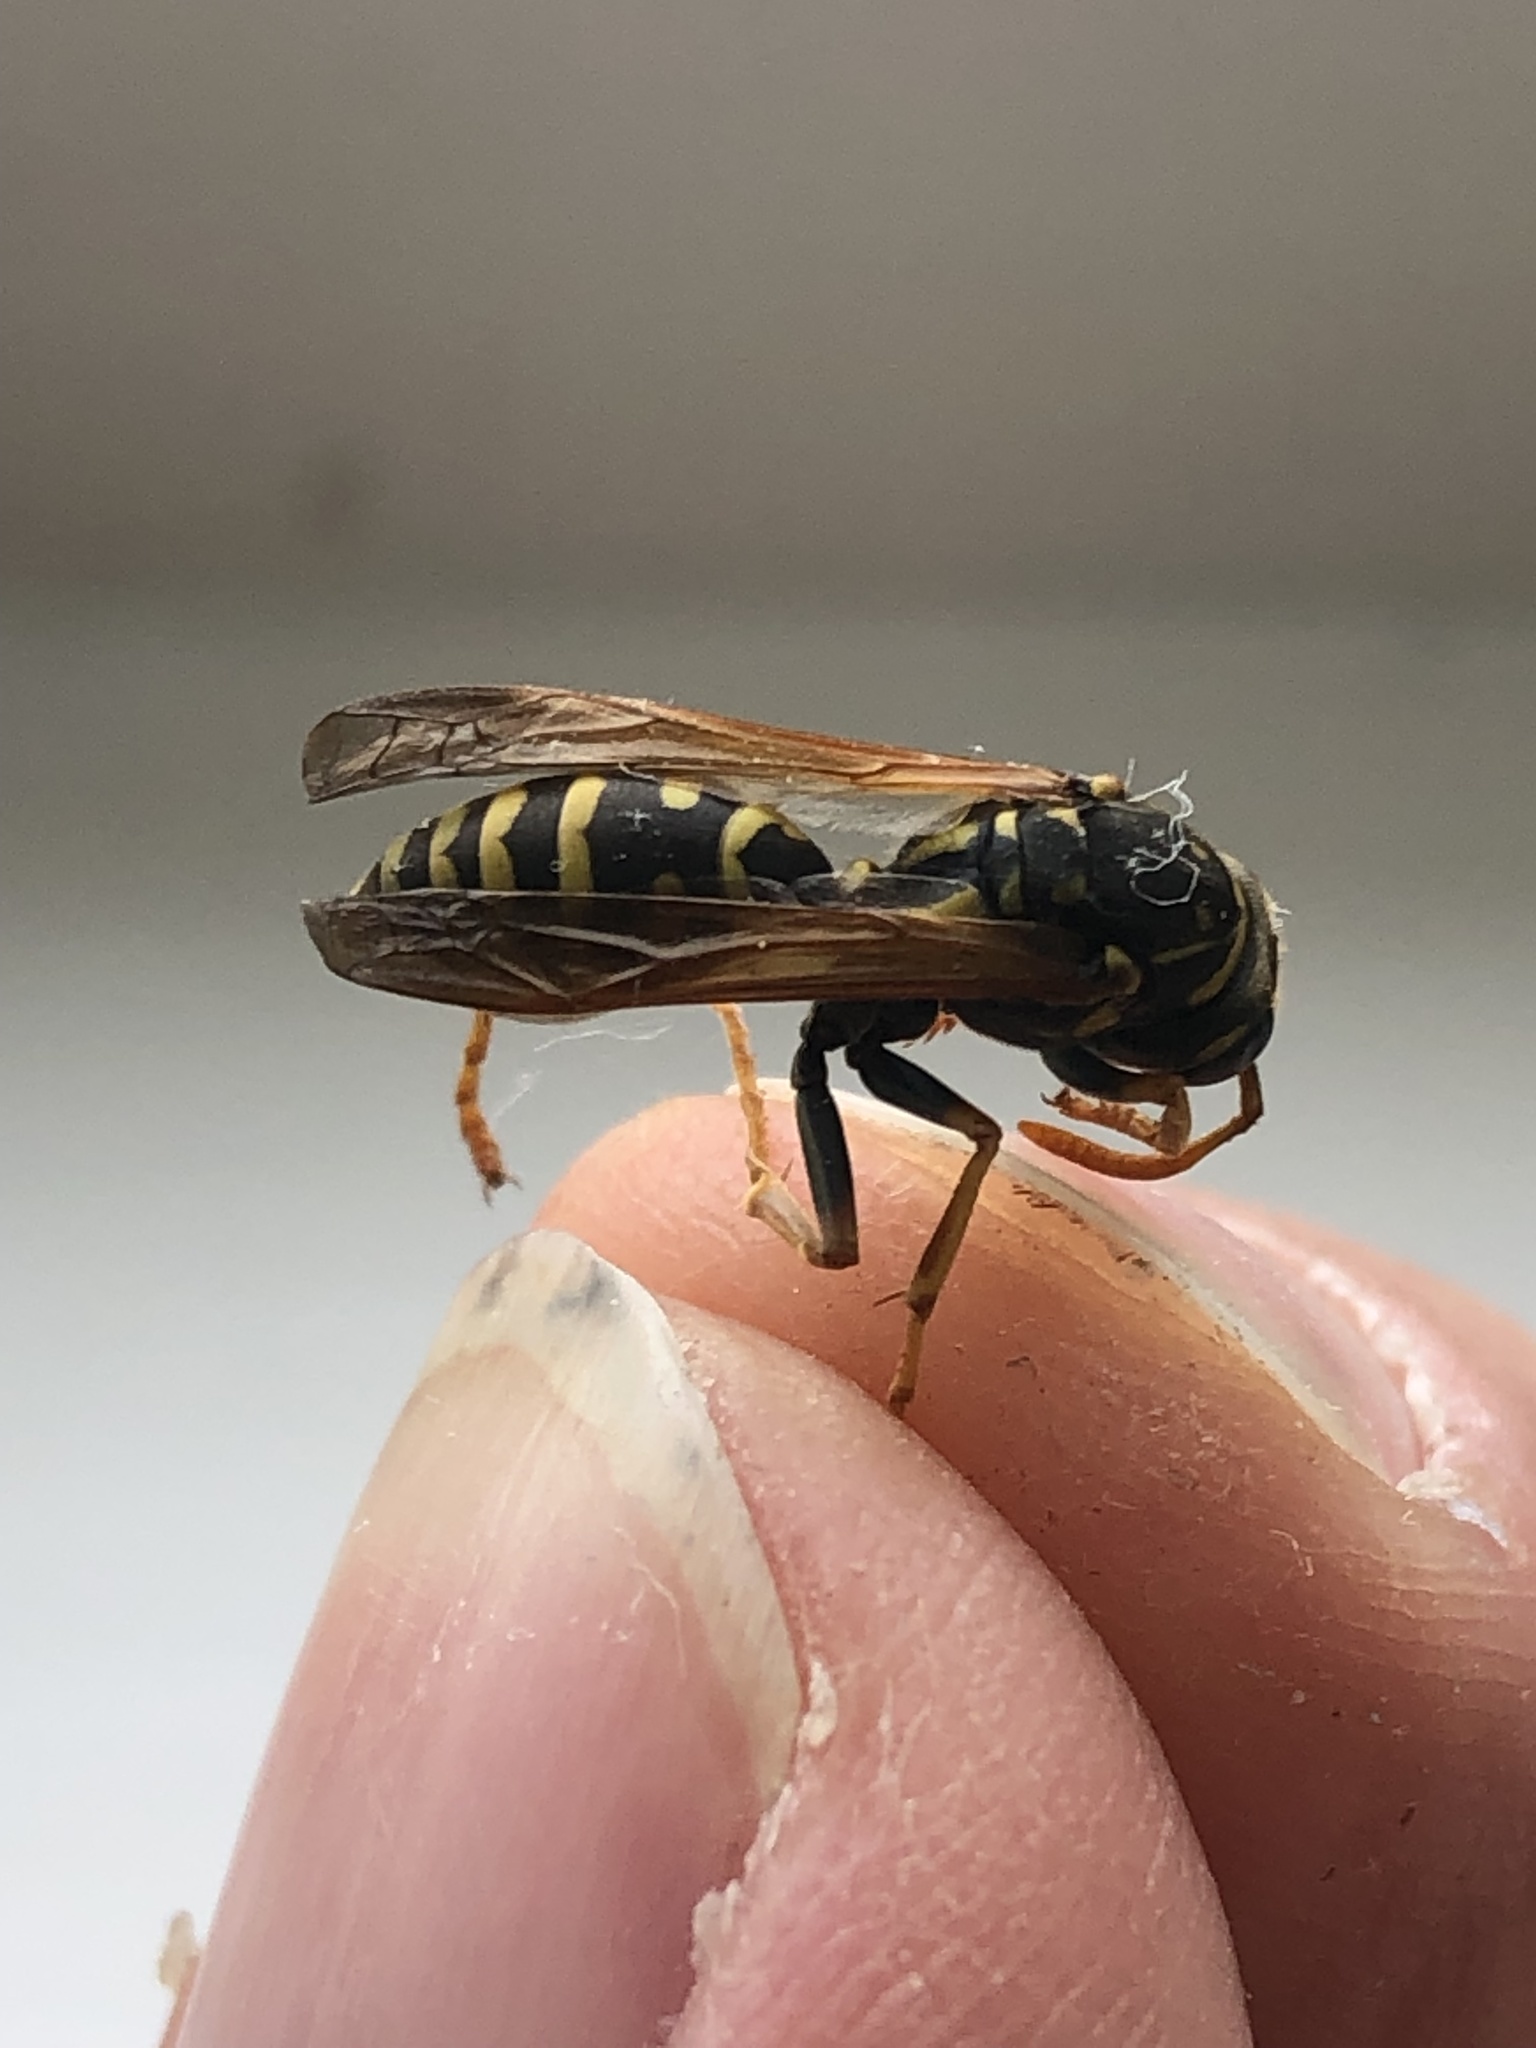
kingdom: Animalia
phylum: Arthropoda
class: Insecta
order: Hymenoptera
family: Eumenidae
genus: Polistes
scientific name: Polistes dominula
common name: Paper wasp
